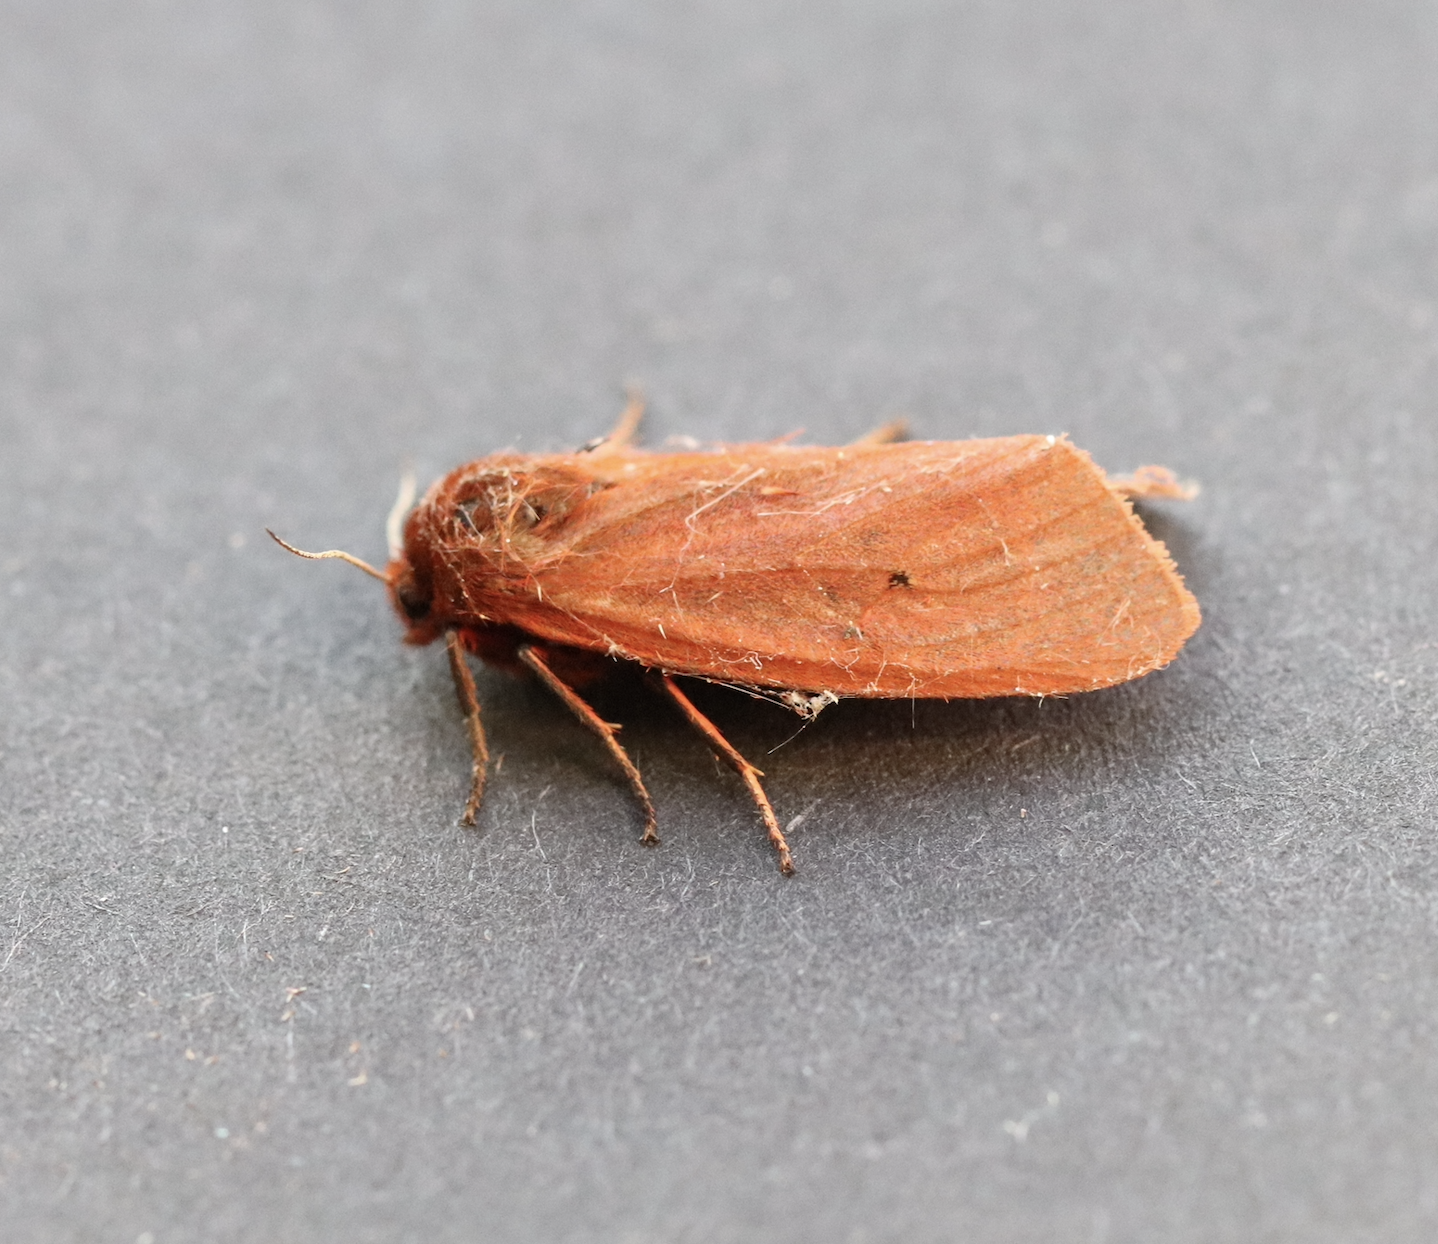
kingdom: Animalia
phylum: Arthropoda
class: Insecta
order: Lepidoptera
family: Erebidae
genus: Phragmatobia
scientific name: Phragmatobia fuliginosa
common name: Ruby tiger
